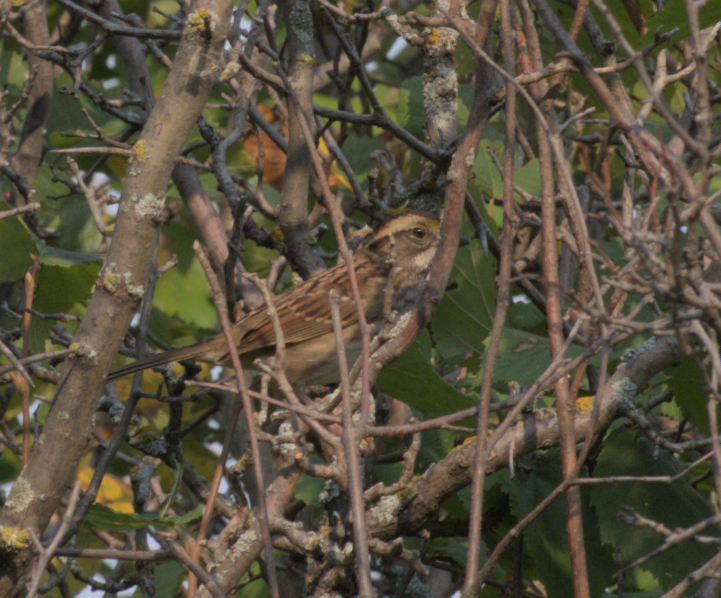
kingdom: Animalia
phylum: Chordata
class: Aves
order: Passeriformes
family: Passerellidae
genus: Zonotrichia
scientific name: Zonotrichia albicollis
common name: White-throated sparrow
